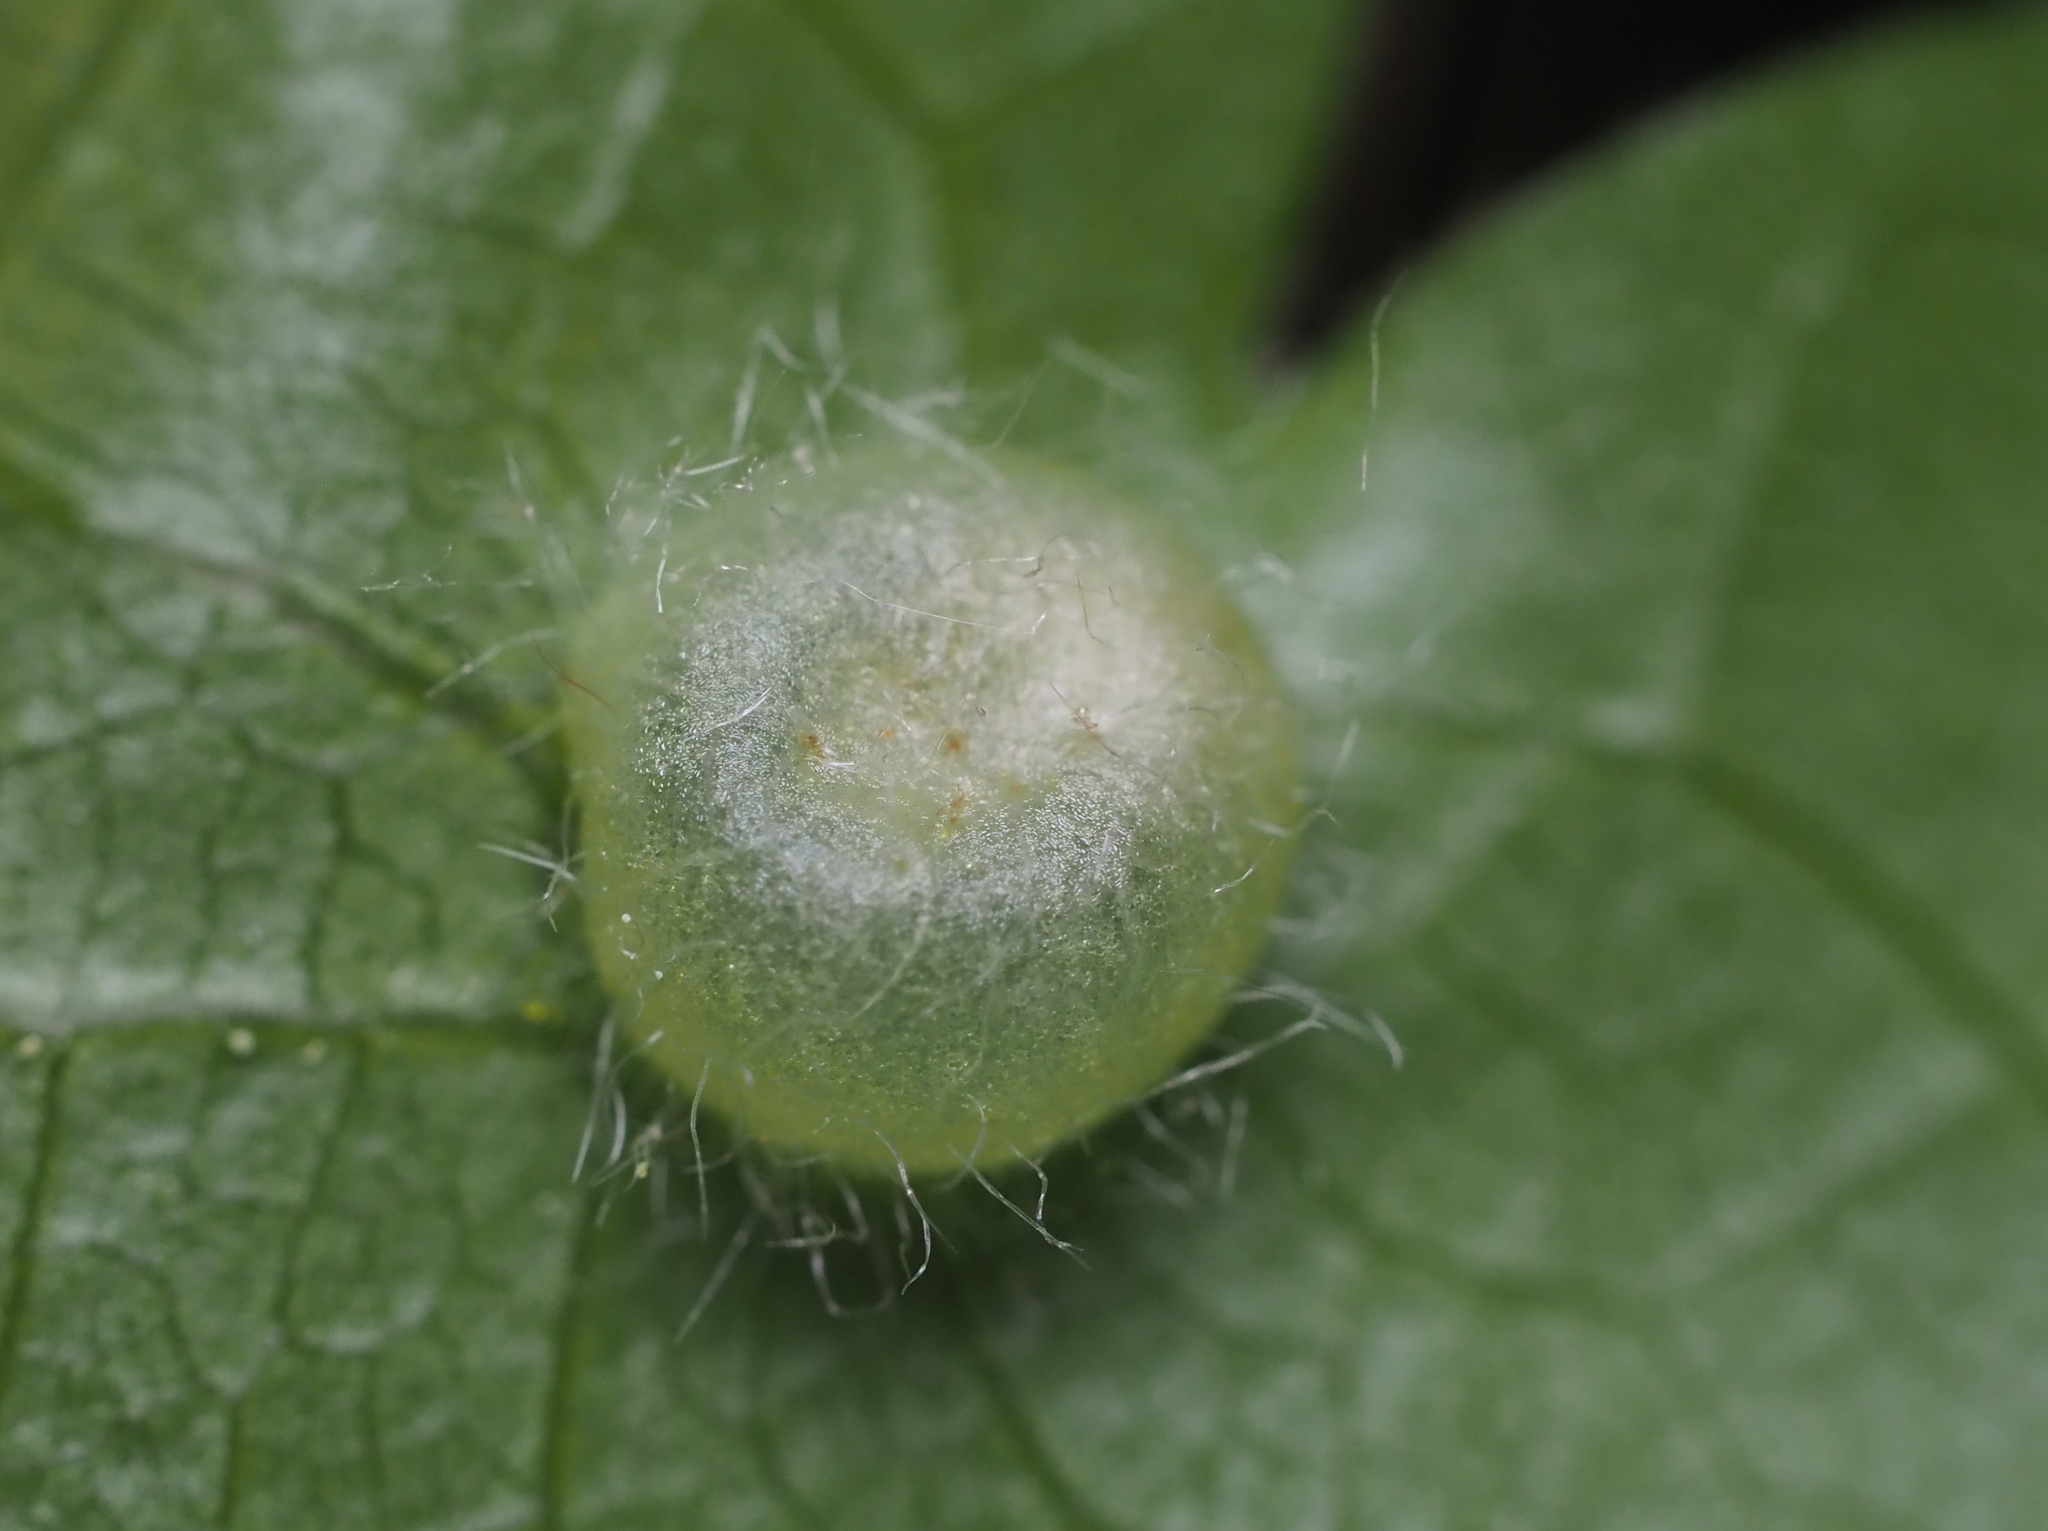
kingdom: Animalia
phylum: Arthropoda
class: Insecta
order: Hymenoptera
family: Cynipidae
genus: Dryocosmus
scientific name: Dryocosmus
